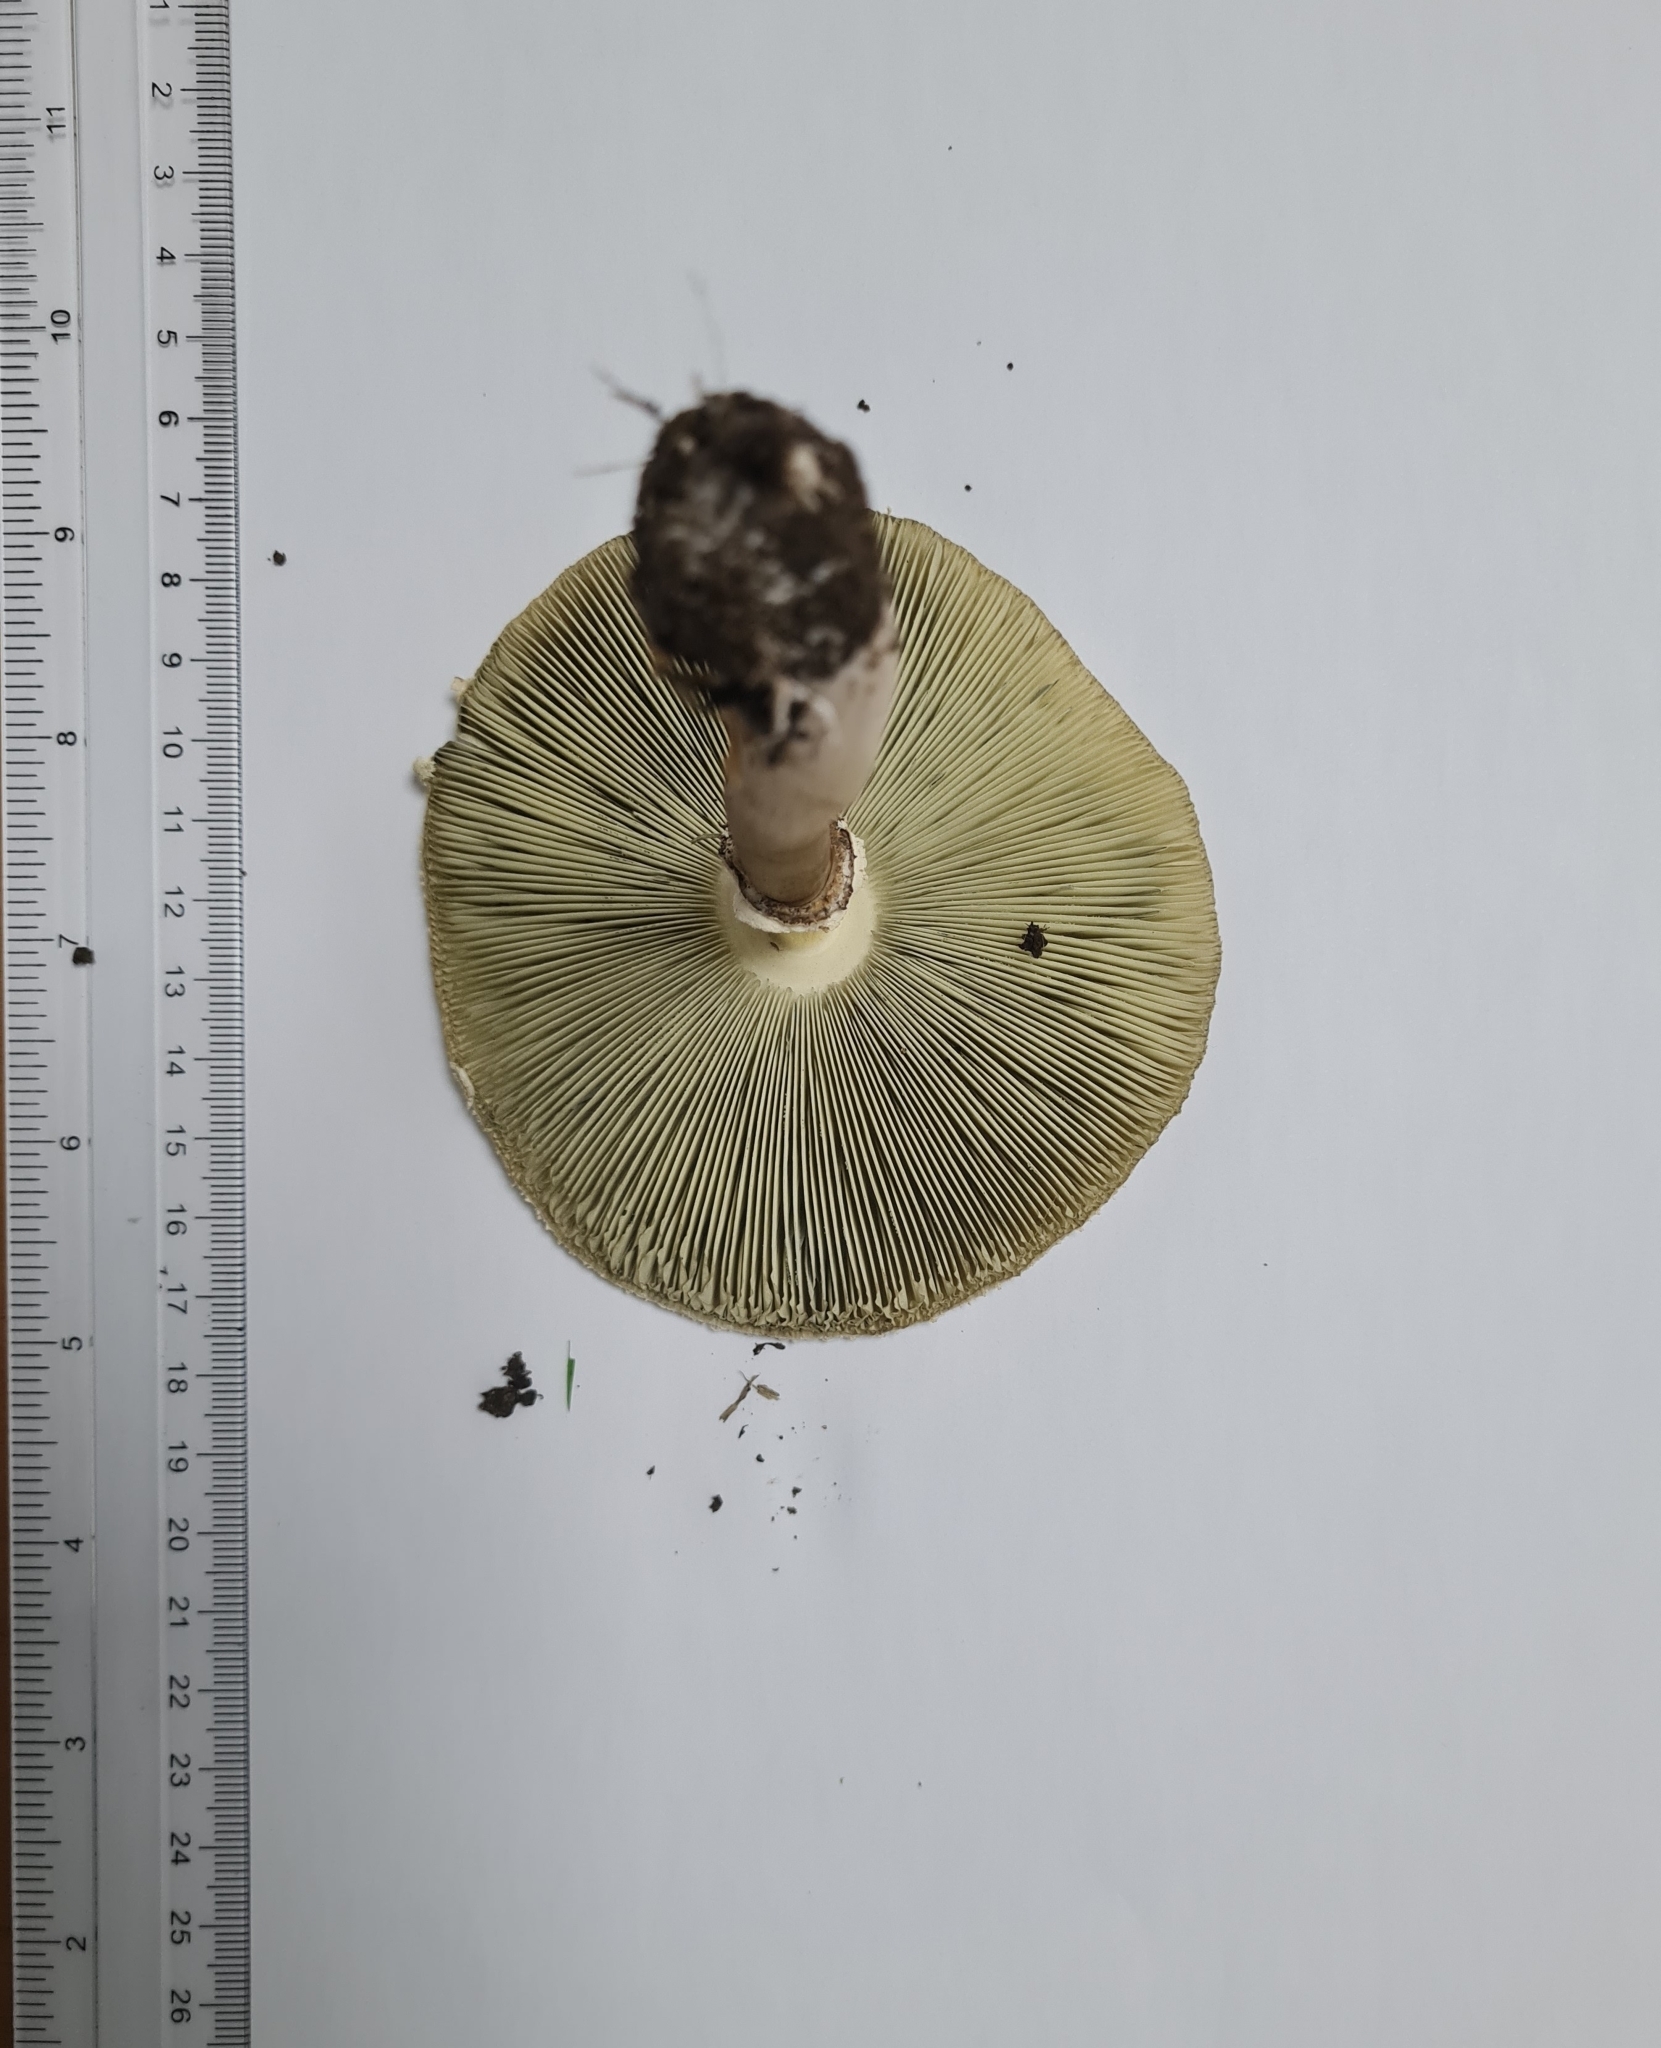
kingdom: Fungi
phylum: Basidiomycota
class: Agaricomycetes
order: Agaricales
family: Agaricaceae
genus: Chlorophyllum
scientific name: Chlorophyllum molybdites
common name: False parasol
